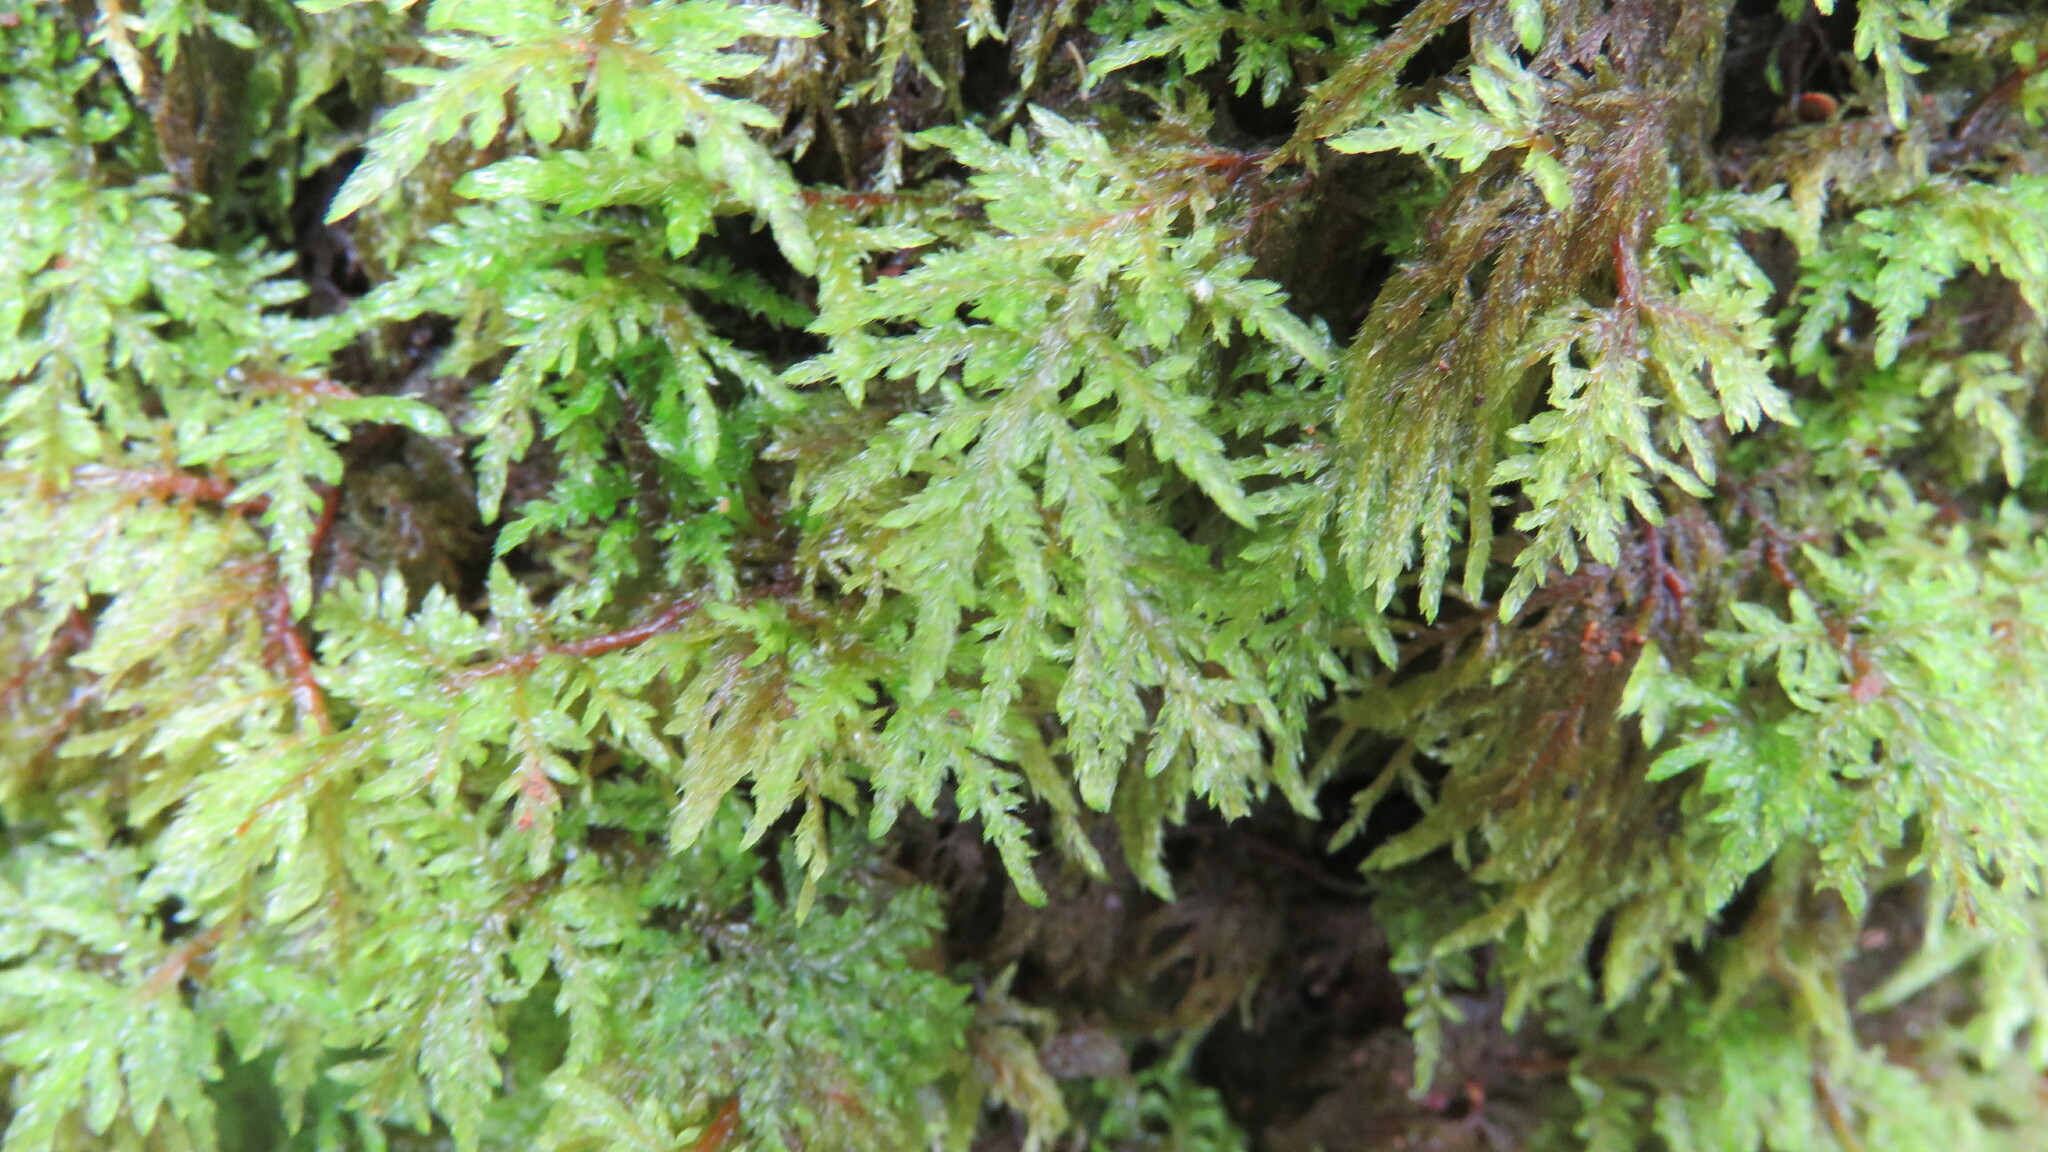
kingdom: Plantae
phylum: Bryophyta
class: Bryopsida
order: Hypnales
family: Hylocomiaceae
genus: Hylocomium
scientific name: Hylocomium splendens
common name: Stairstep moss
